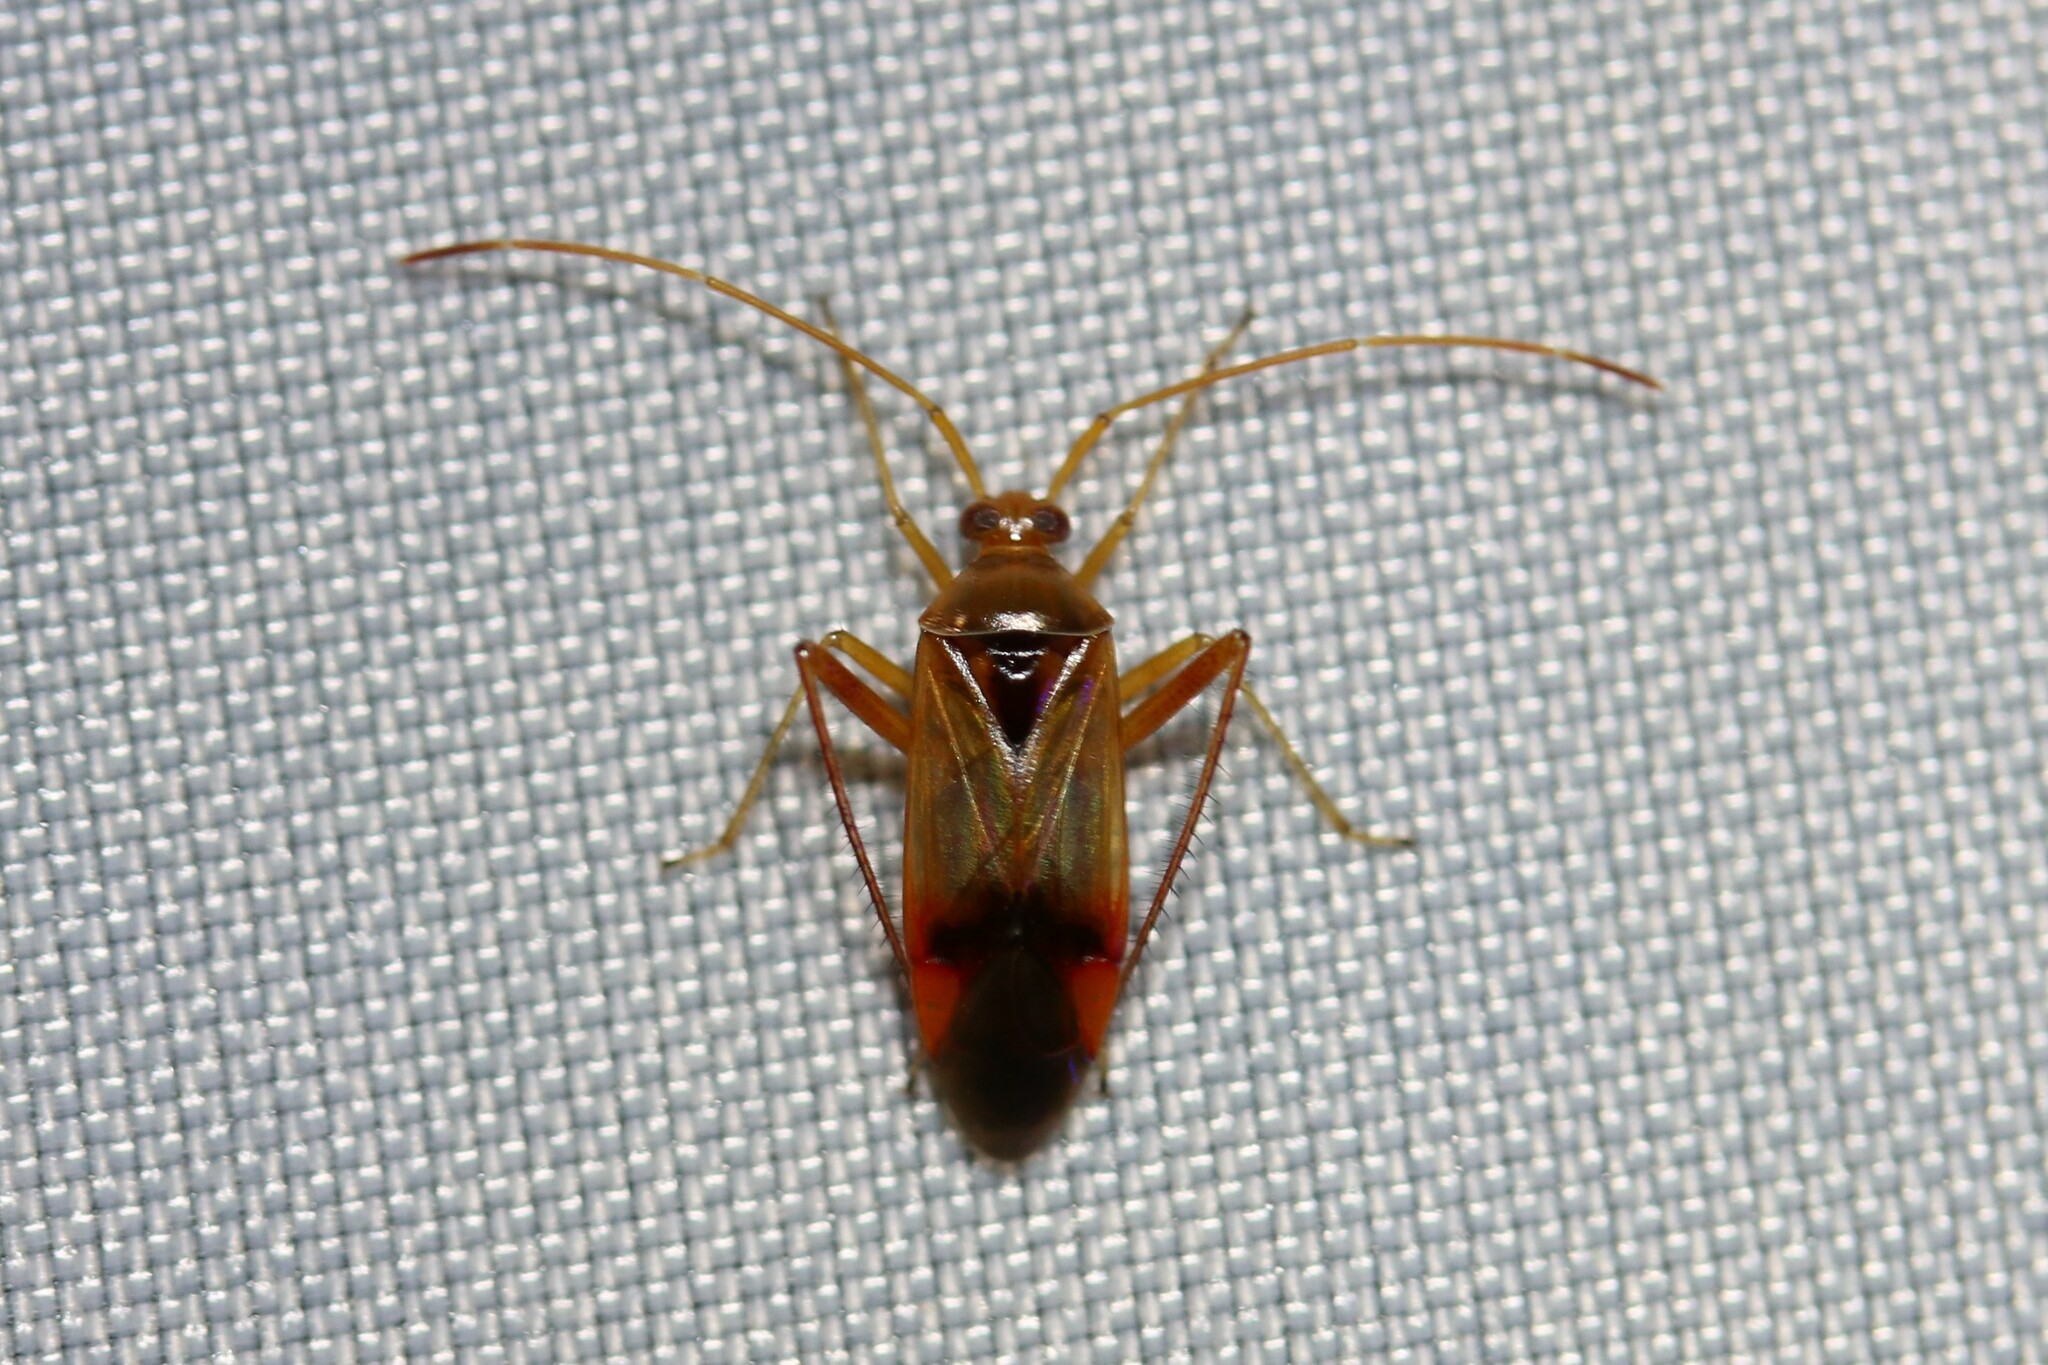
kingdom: Animalia
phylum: Arthropoda
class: Insecta
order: Hemiptera
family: Miridae
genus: Megacoelum
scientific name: Megacoelum beckeri
